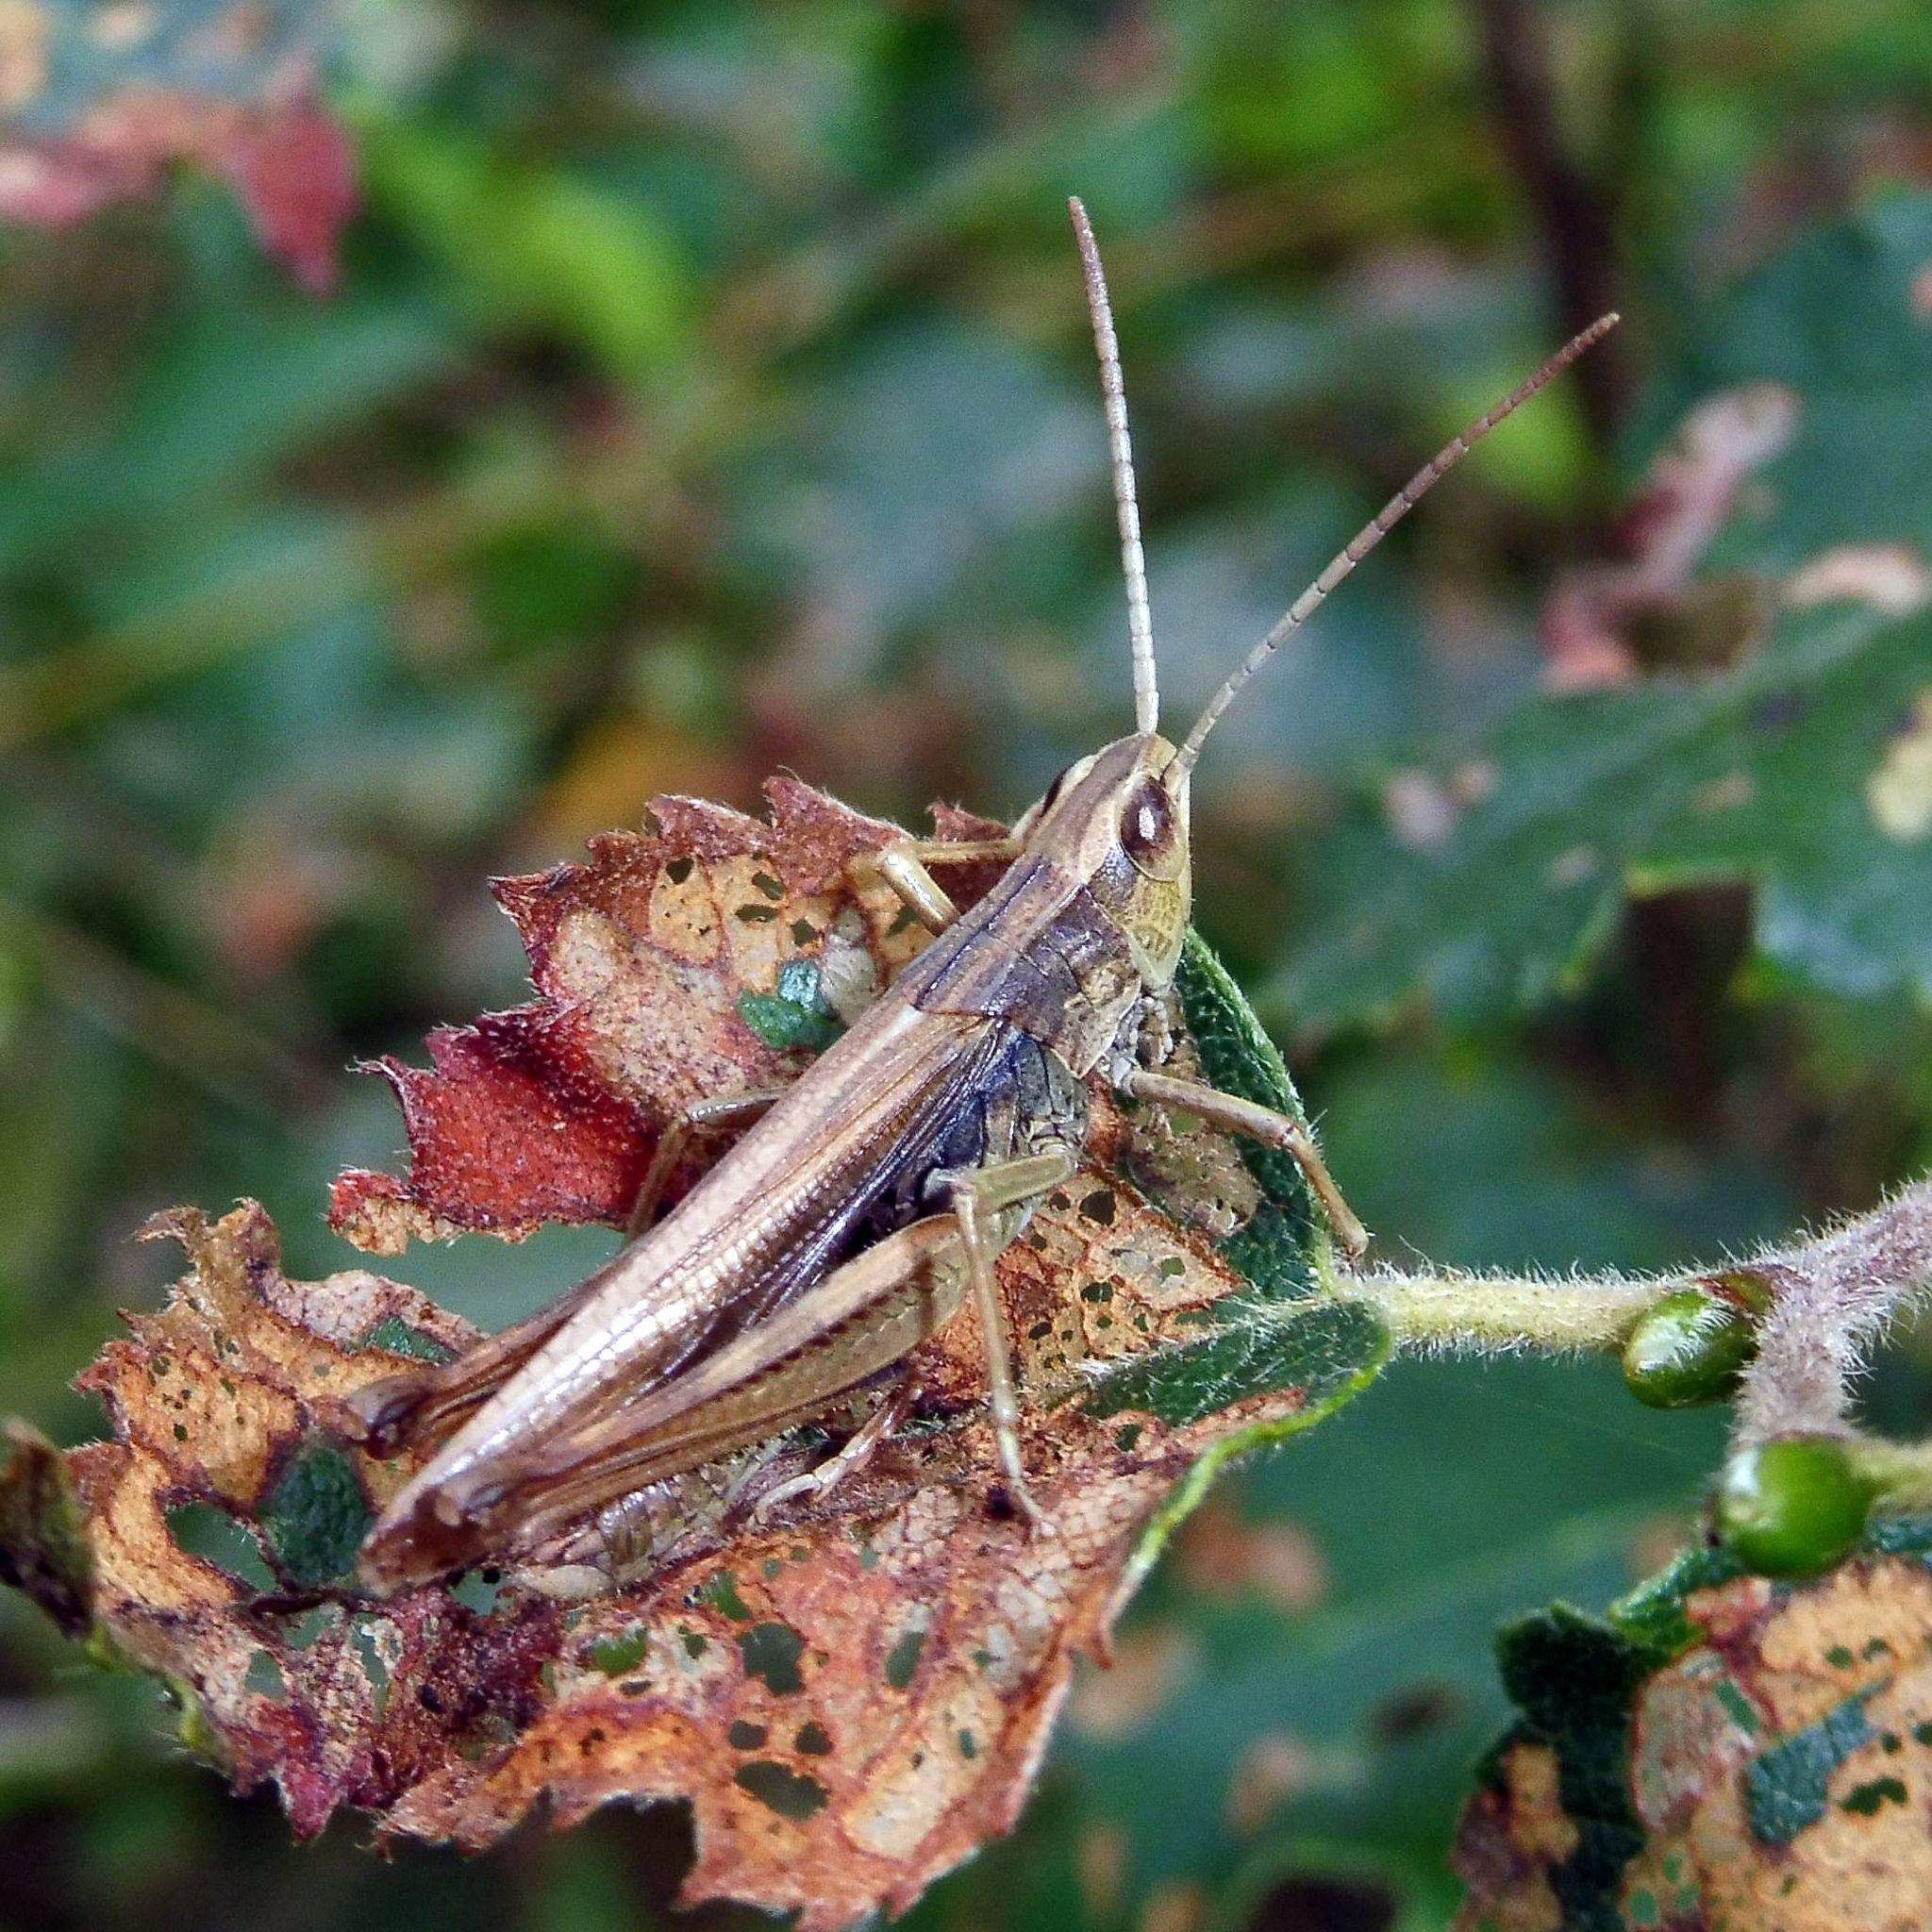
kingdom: Animalia
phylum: Arthropoda
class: Insecta
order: Orthoptera
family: Acrididae
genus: Chorthippus
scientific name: Chorthippus albomarginatus
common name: Lesser marsh grasshopper
